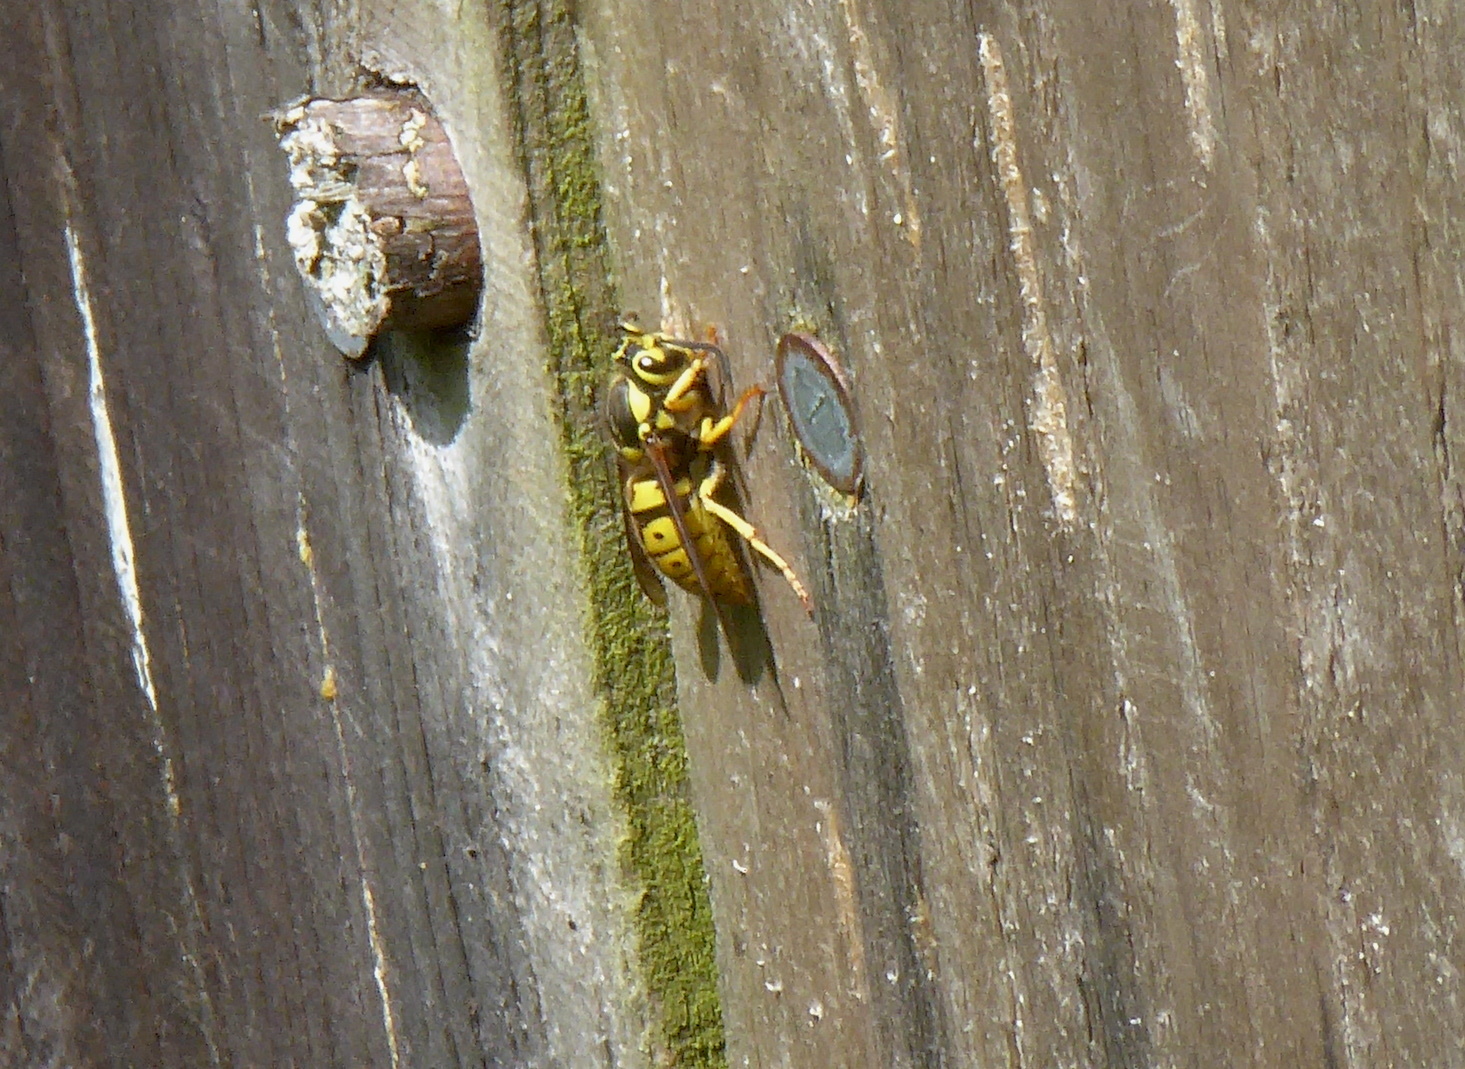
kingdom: Animalia
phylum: Arthropoda
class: Insecta
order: Hymenoptera
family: Vespidae
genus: Vespula
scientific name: Vespula pensylvanica
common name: Western yellowjacket
